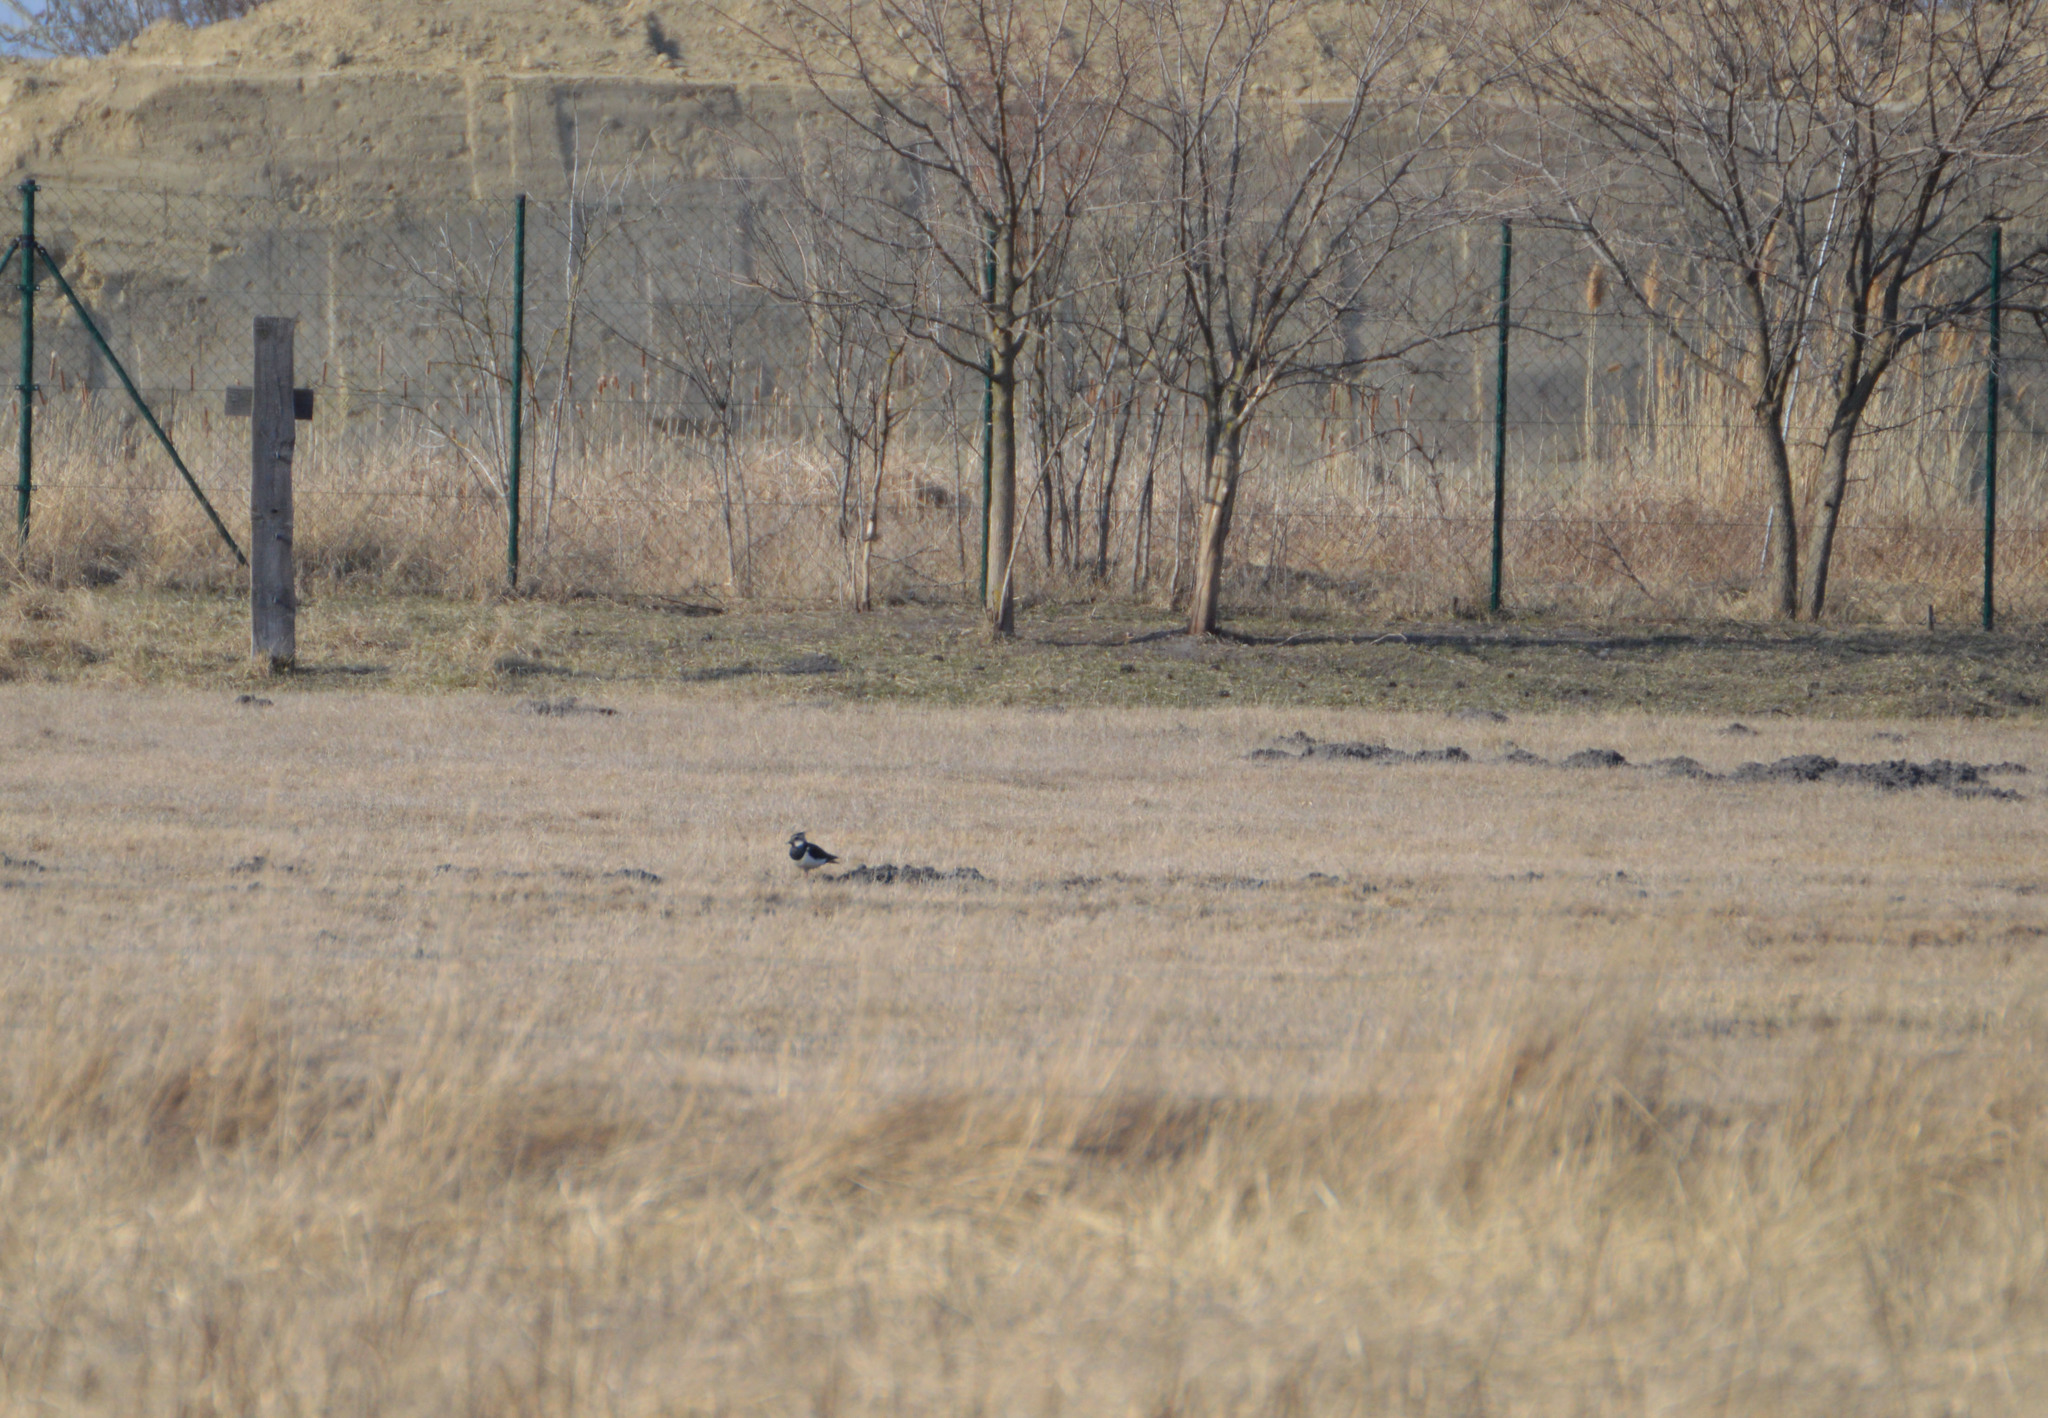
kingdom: Animalia
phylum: Chordata
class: Aves
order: Charadriiformes
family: Charadriidae
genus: Vanellus
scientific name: Vanellus vanellus
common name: Northern lapwing
